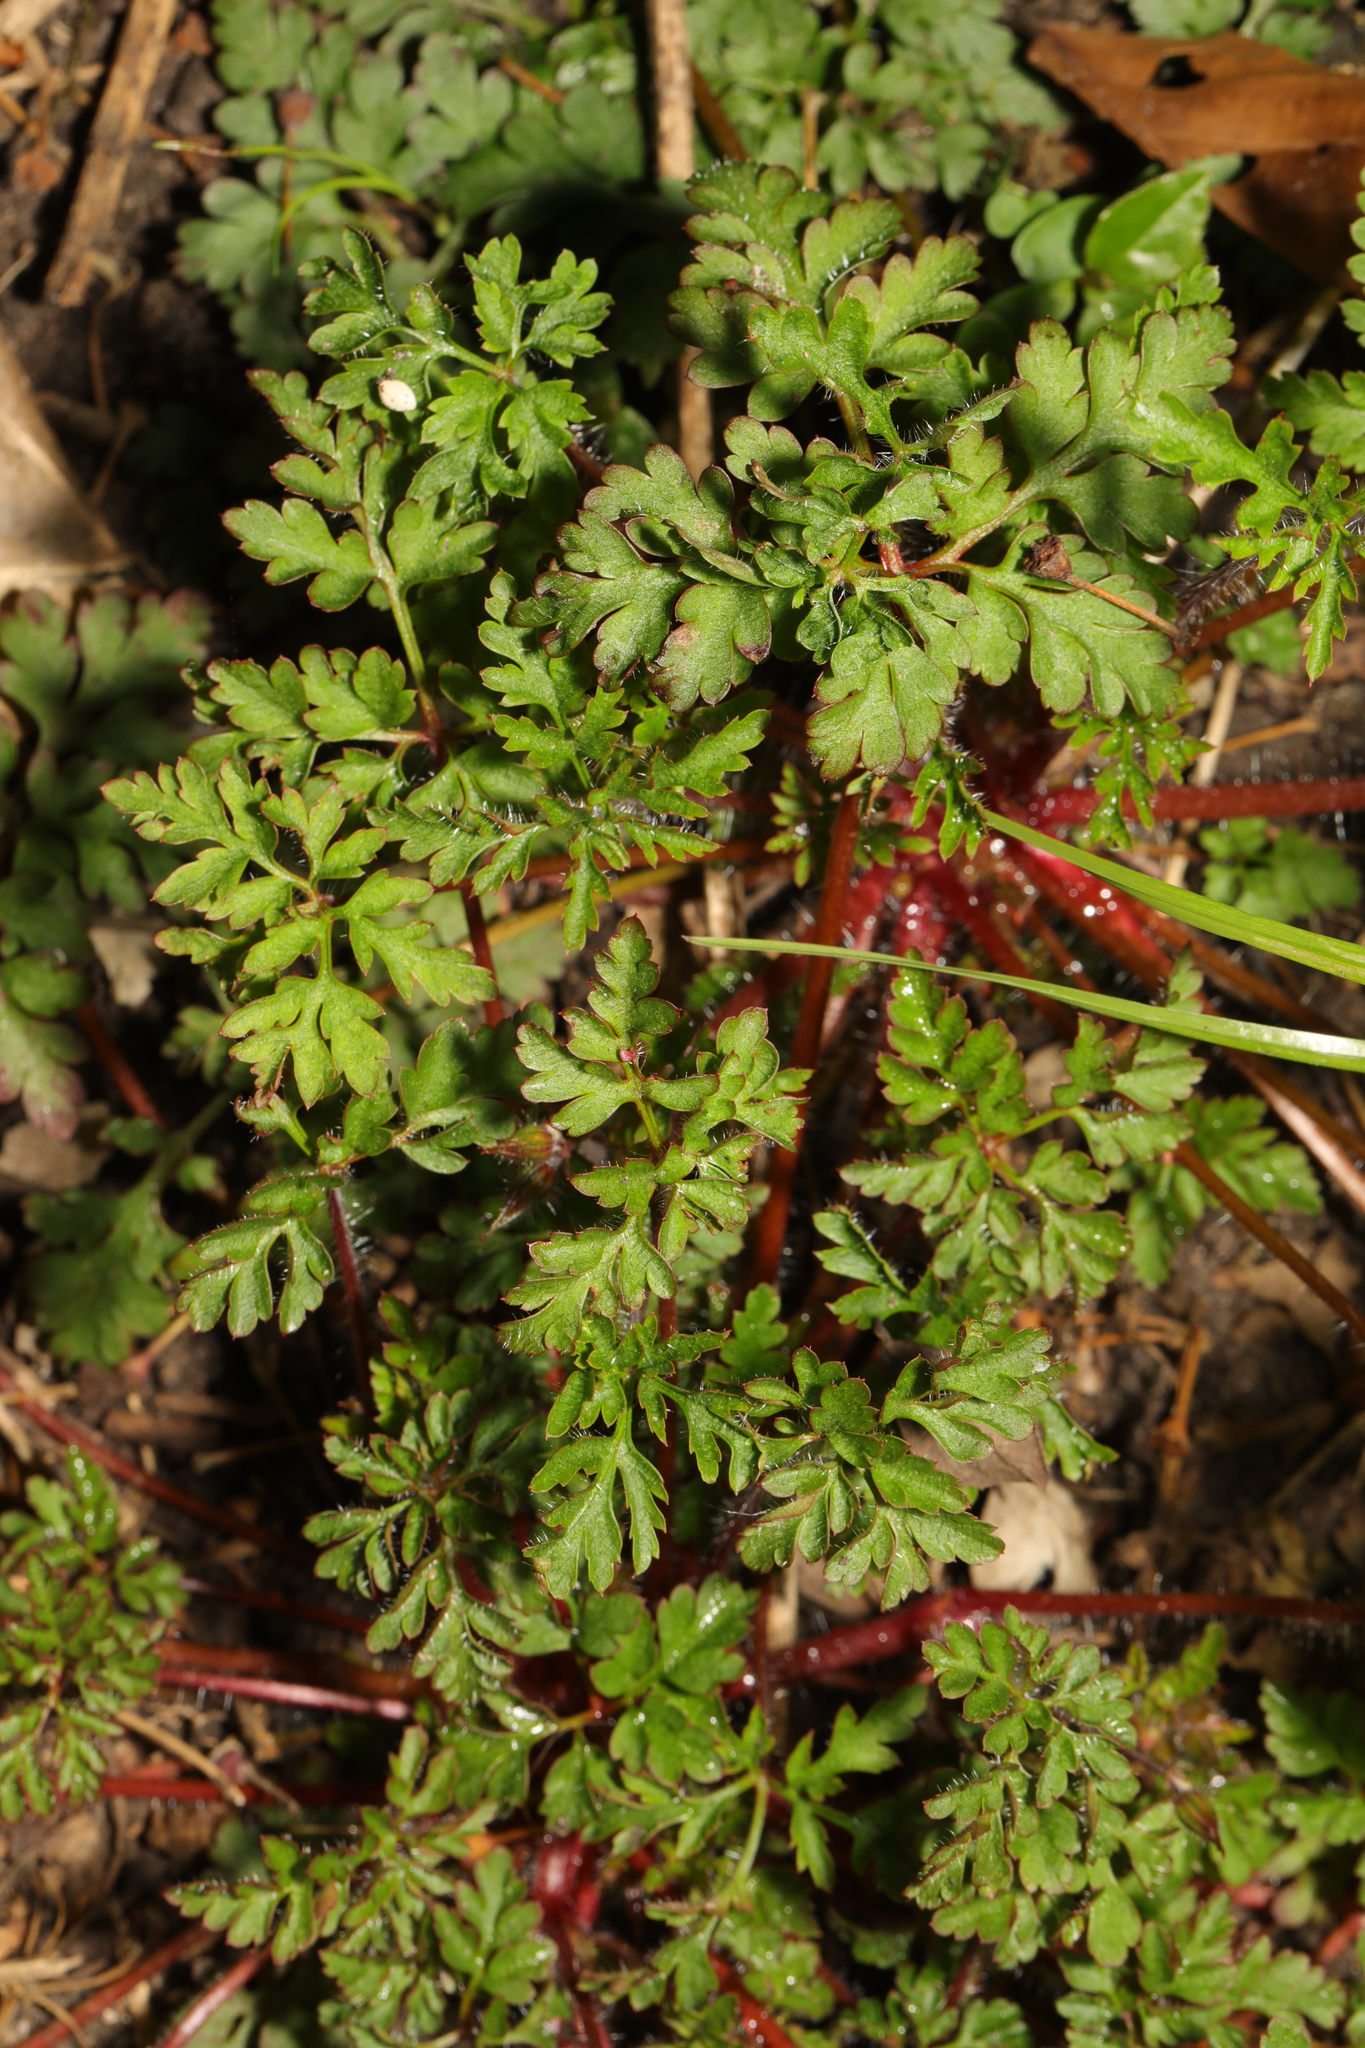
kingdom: Plantae
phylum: Tracheophyta
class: Magnoliopsida
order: Geraniales
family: Geraniaceae
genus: Geranium
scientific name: Geranium robertianum
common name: Herb-robert
